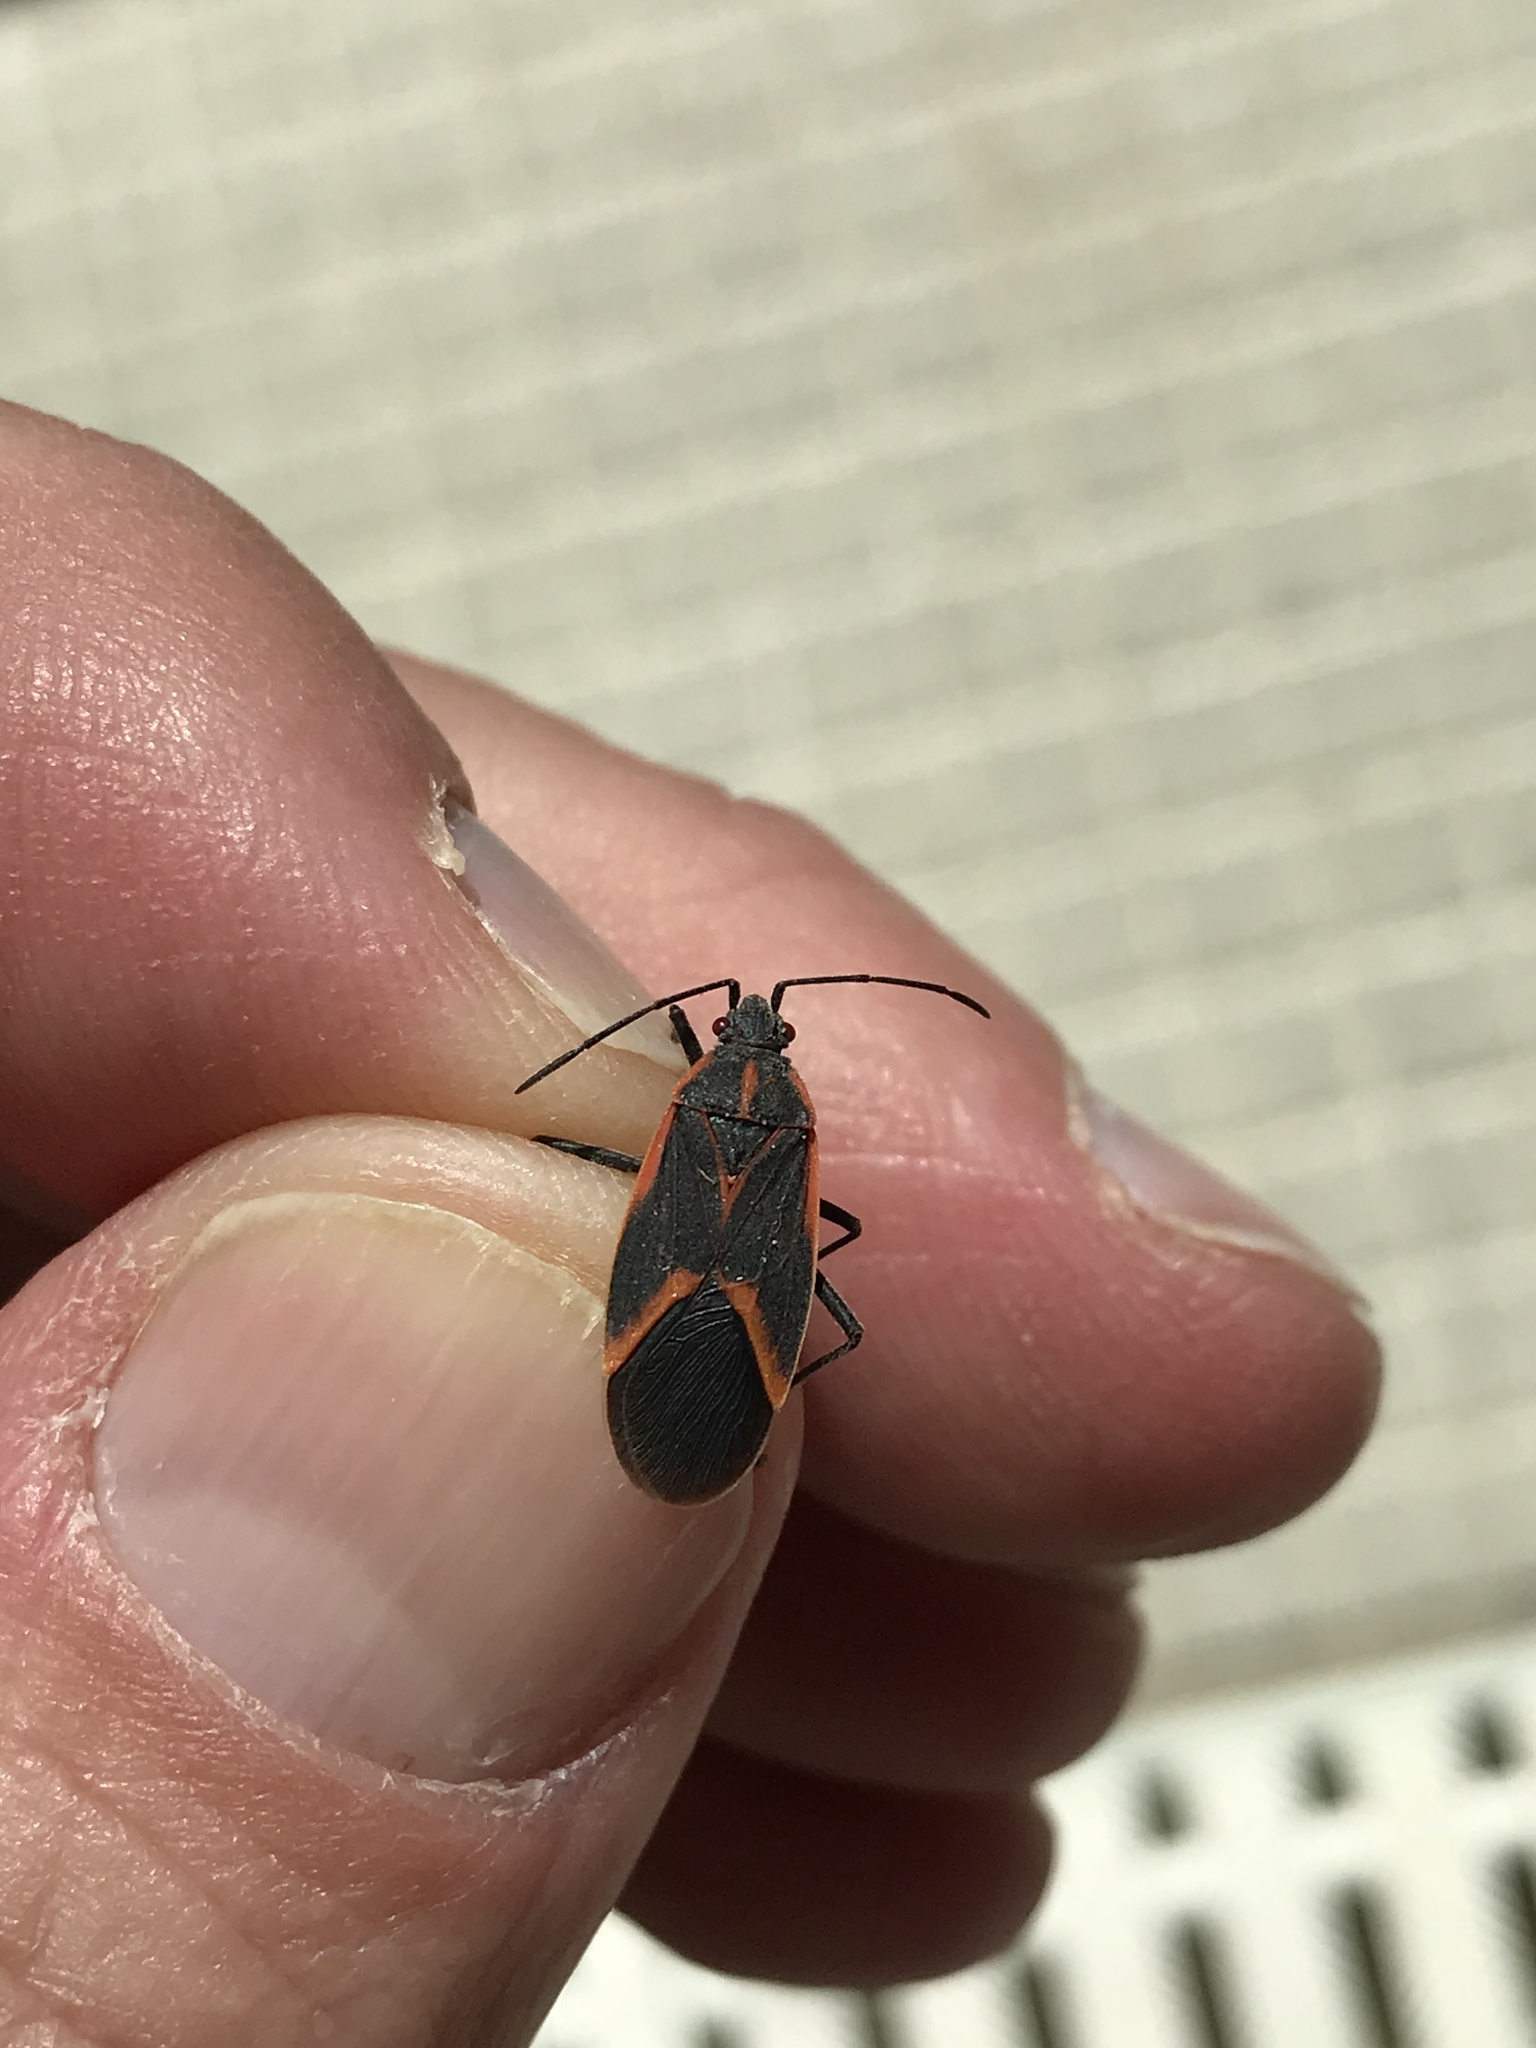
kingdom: Animalia
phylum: Arthropoda
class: Insecta
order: Hemiptera
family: Rhopalidae
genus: Boisea
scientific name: Boisea trivittata
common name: Boxelder bug
